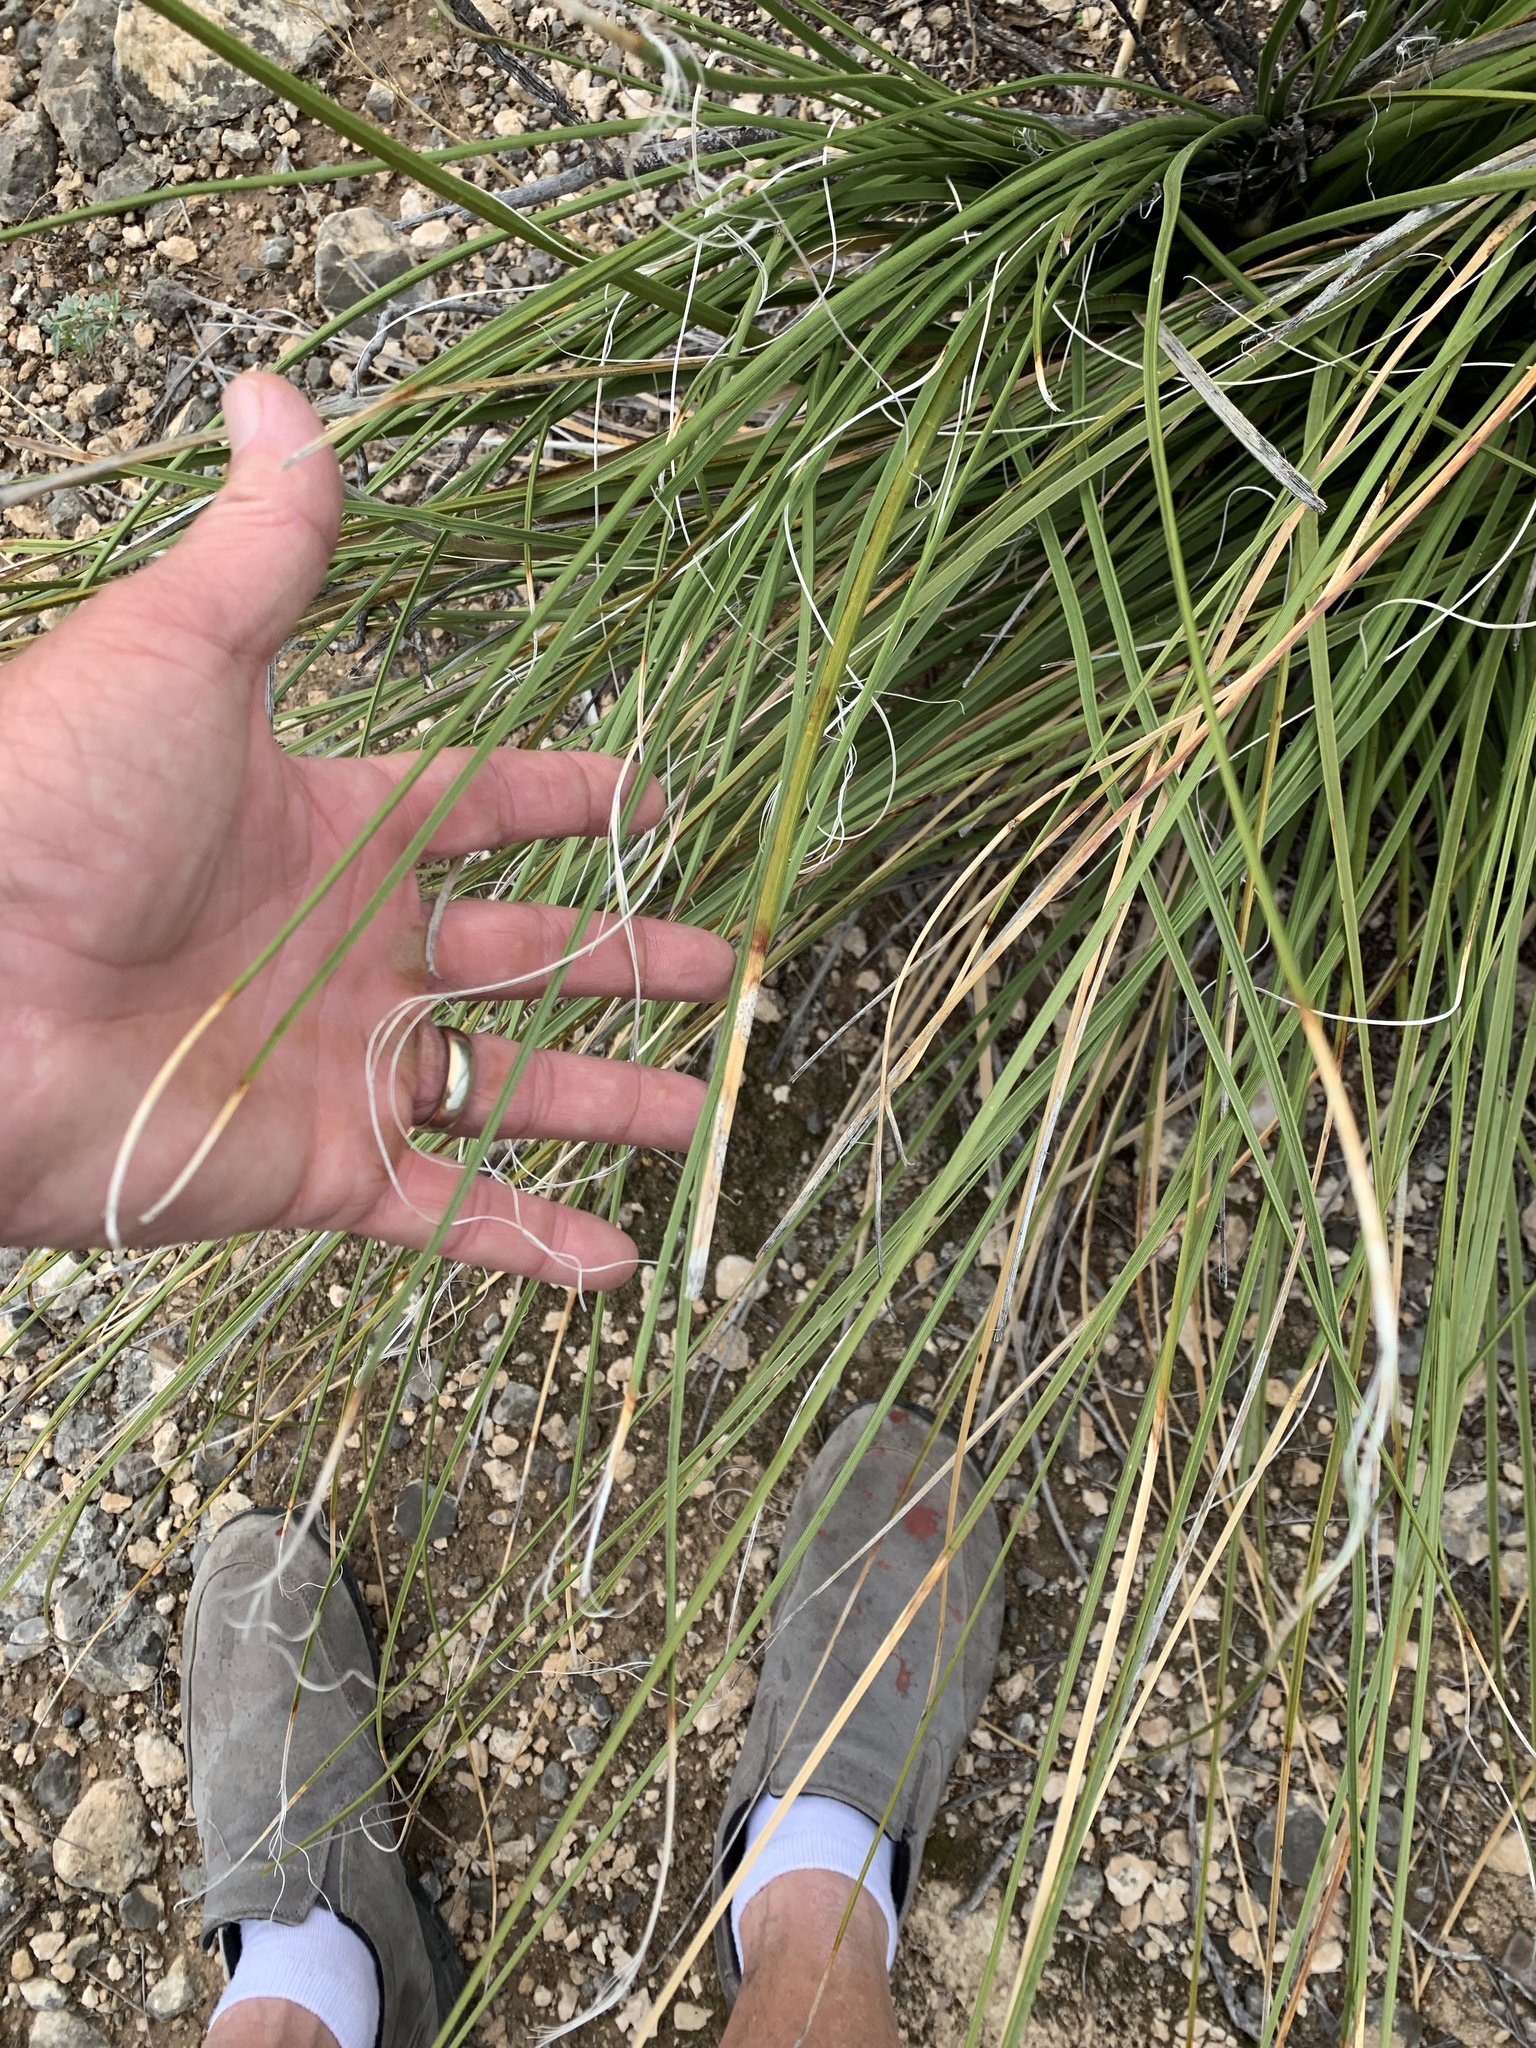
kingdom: Plantae
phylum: Tracheophyta
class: Liliopsida
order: Asparagales
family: Asparagaceae
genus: Nolina
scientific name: Nolina texana
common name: Texas sacahuiste
